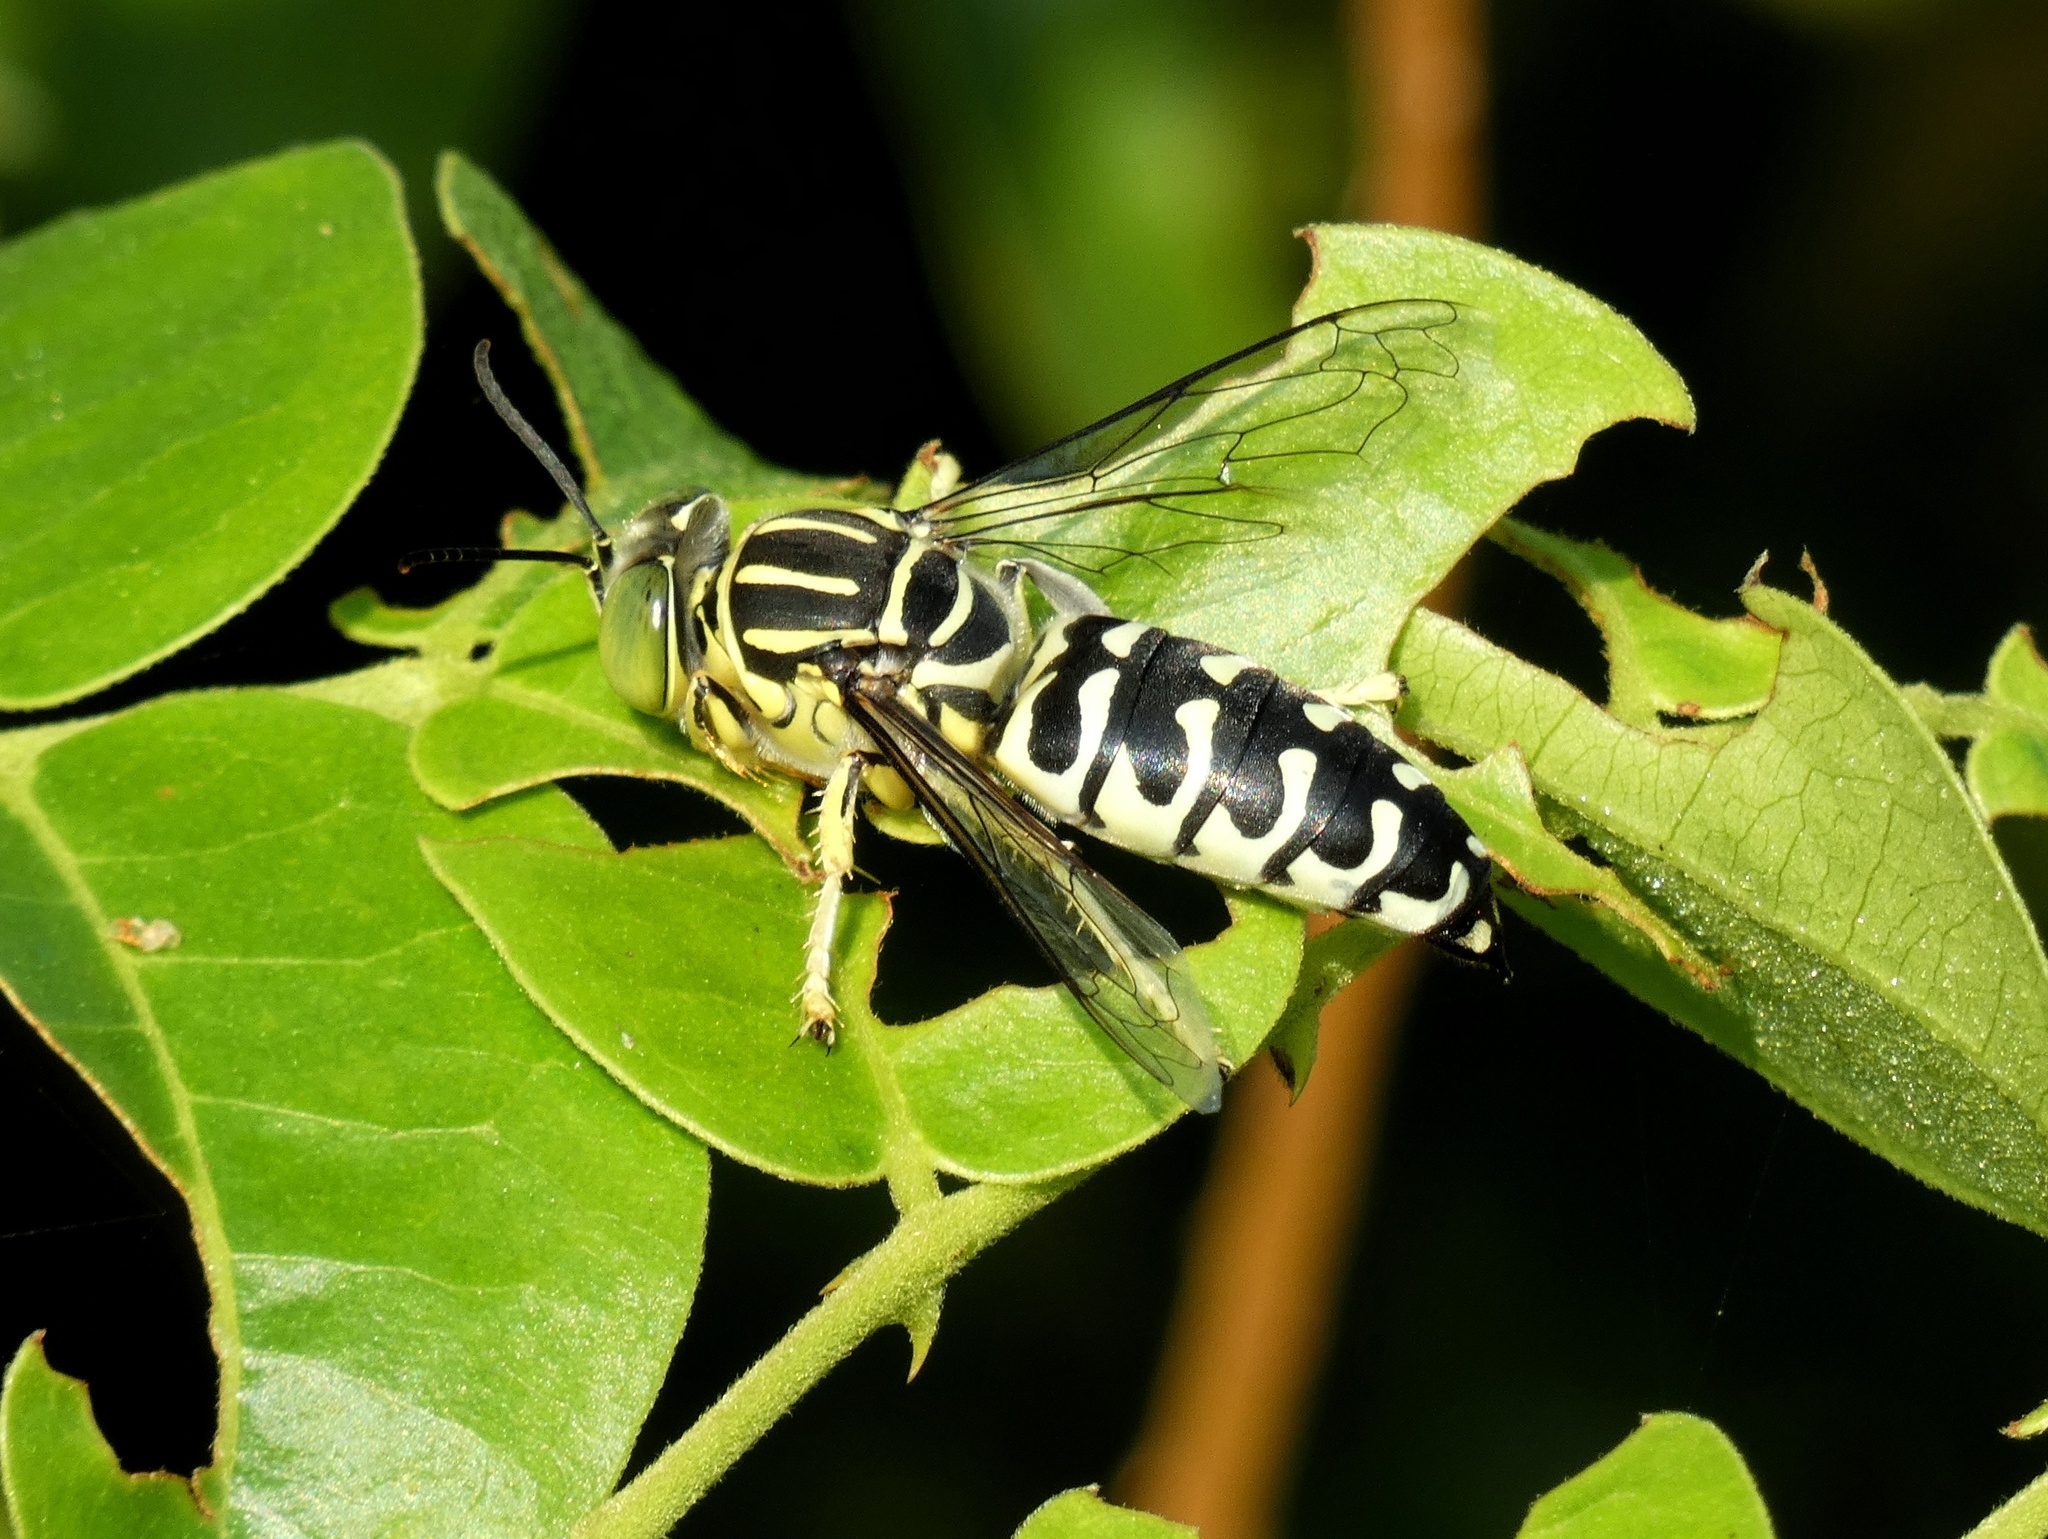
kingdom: Animalia
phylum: Arthropoda
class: Insecta
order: Hymenoptera
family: Crabronidae
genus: Stictia
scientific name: Stictia signata
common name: Sand wasp
